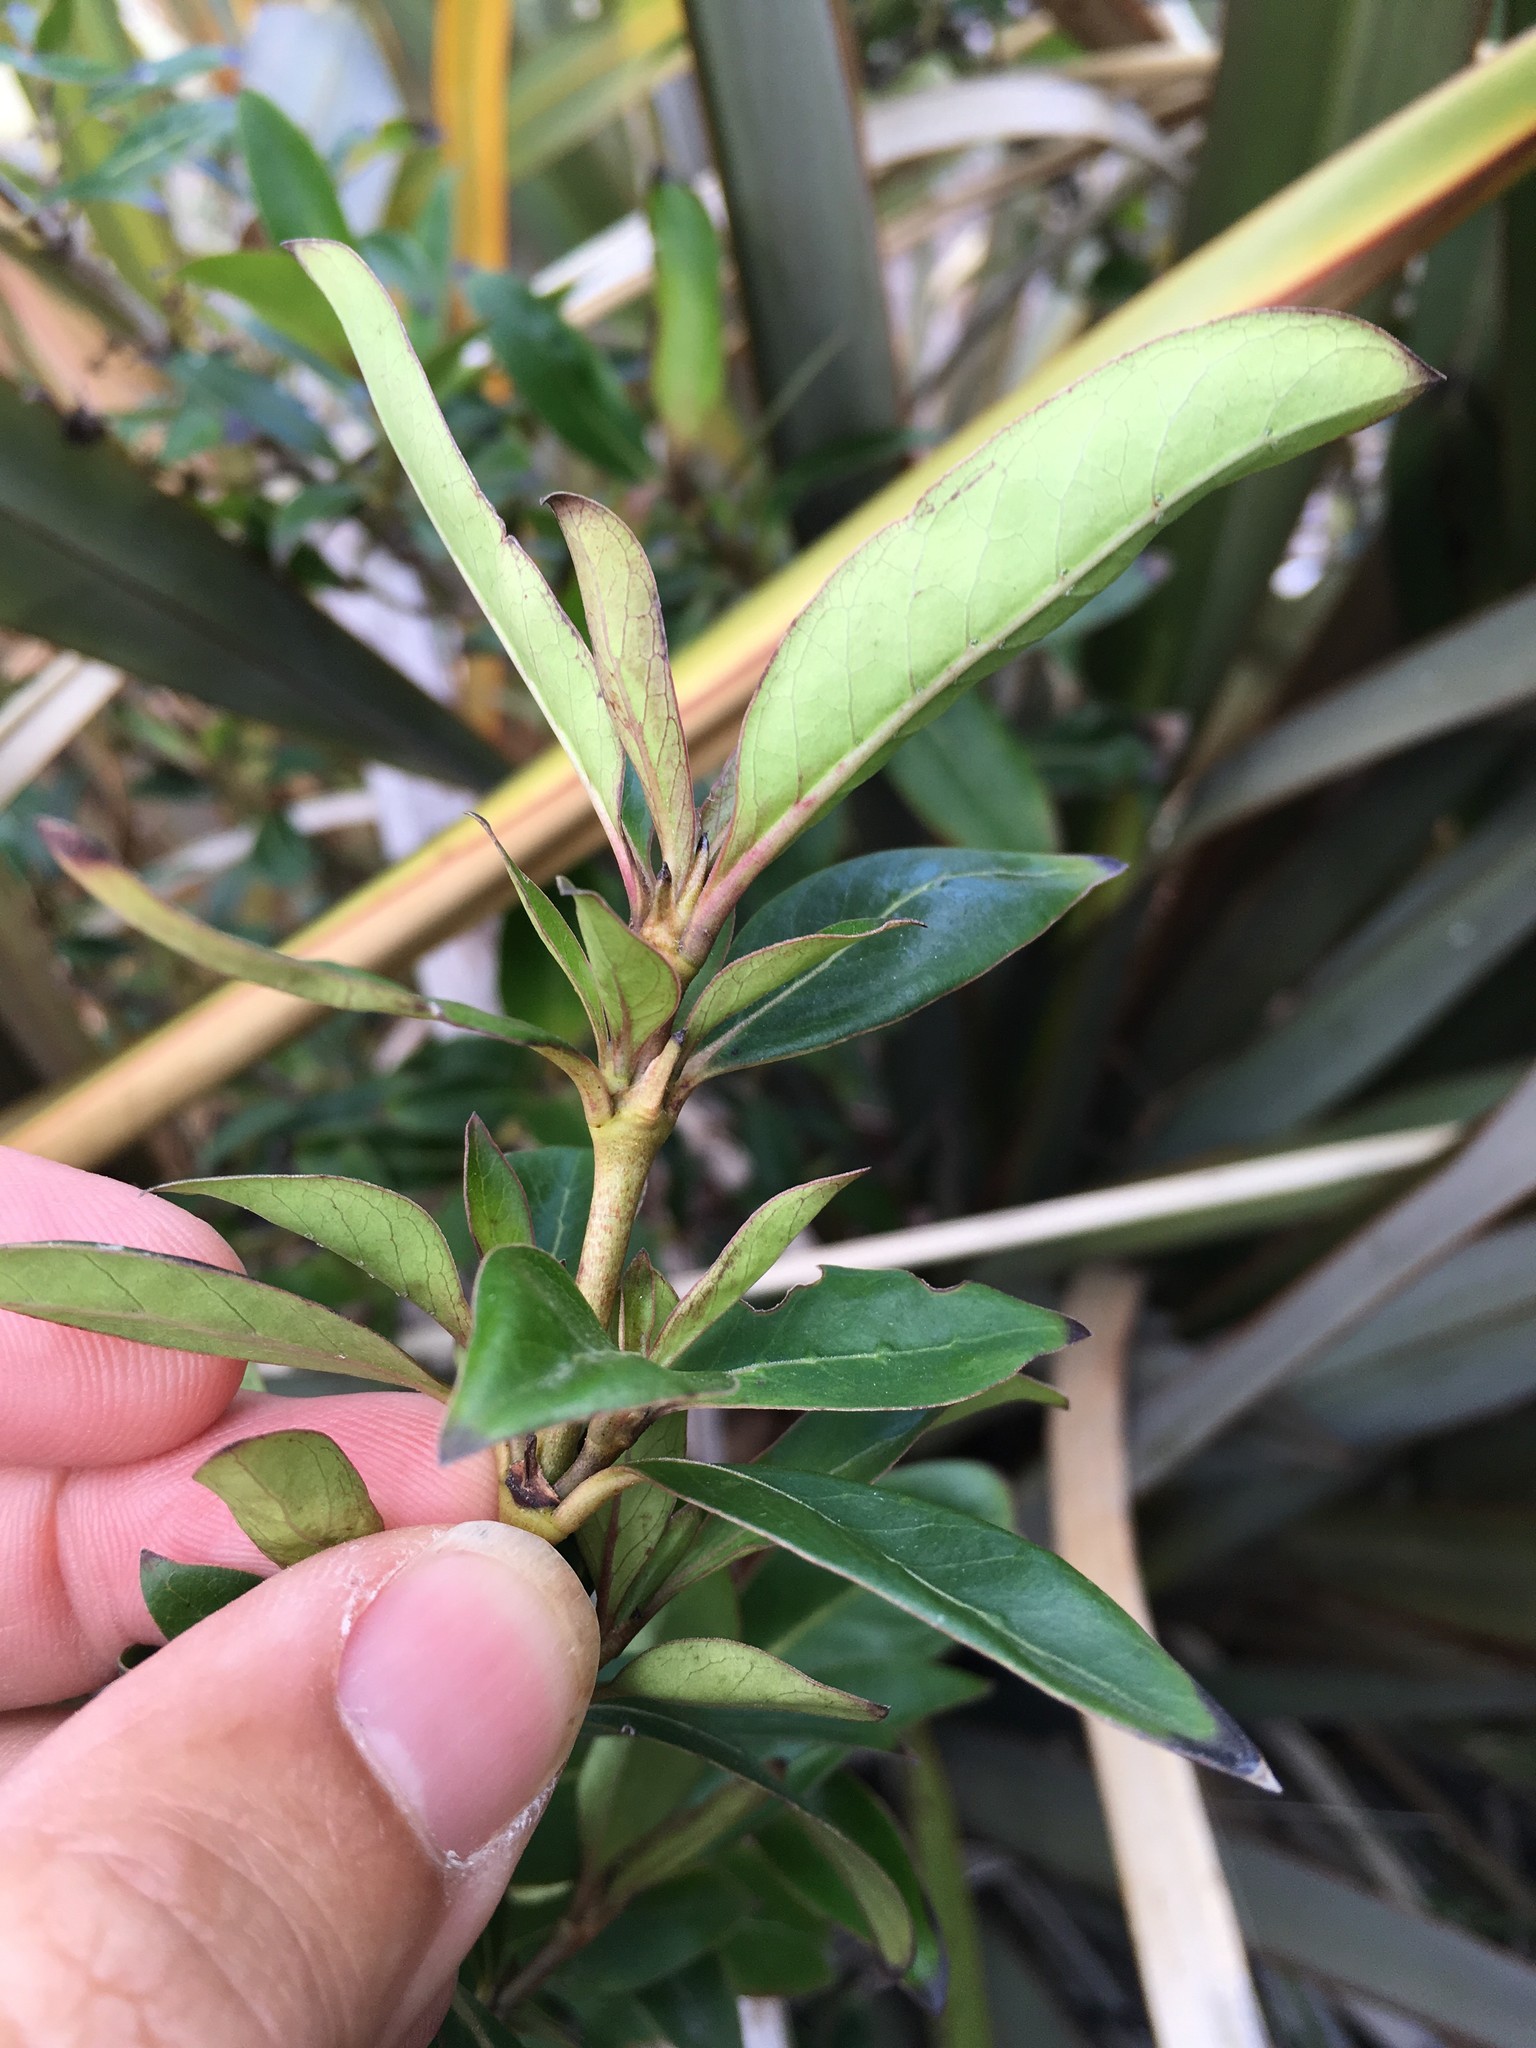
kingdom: Plantae
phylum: Tracheophyta
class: Magnoliopsida
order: Gentianales
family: Rubiaceae
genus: Coprosma
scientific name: Coprosma robusta
